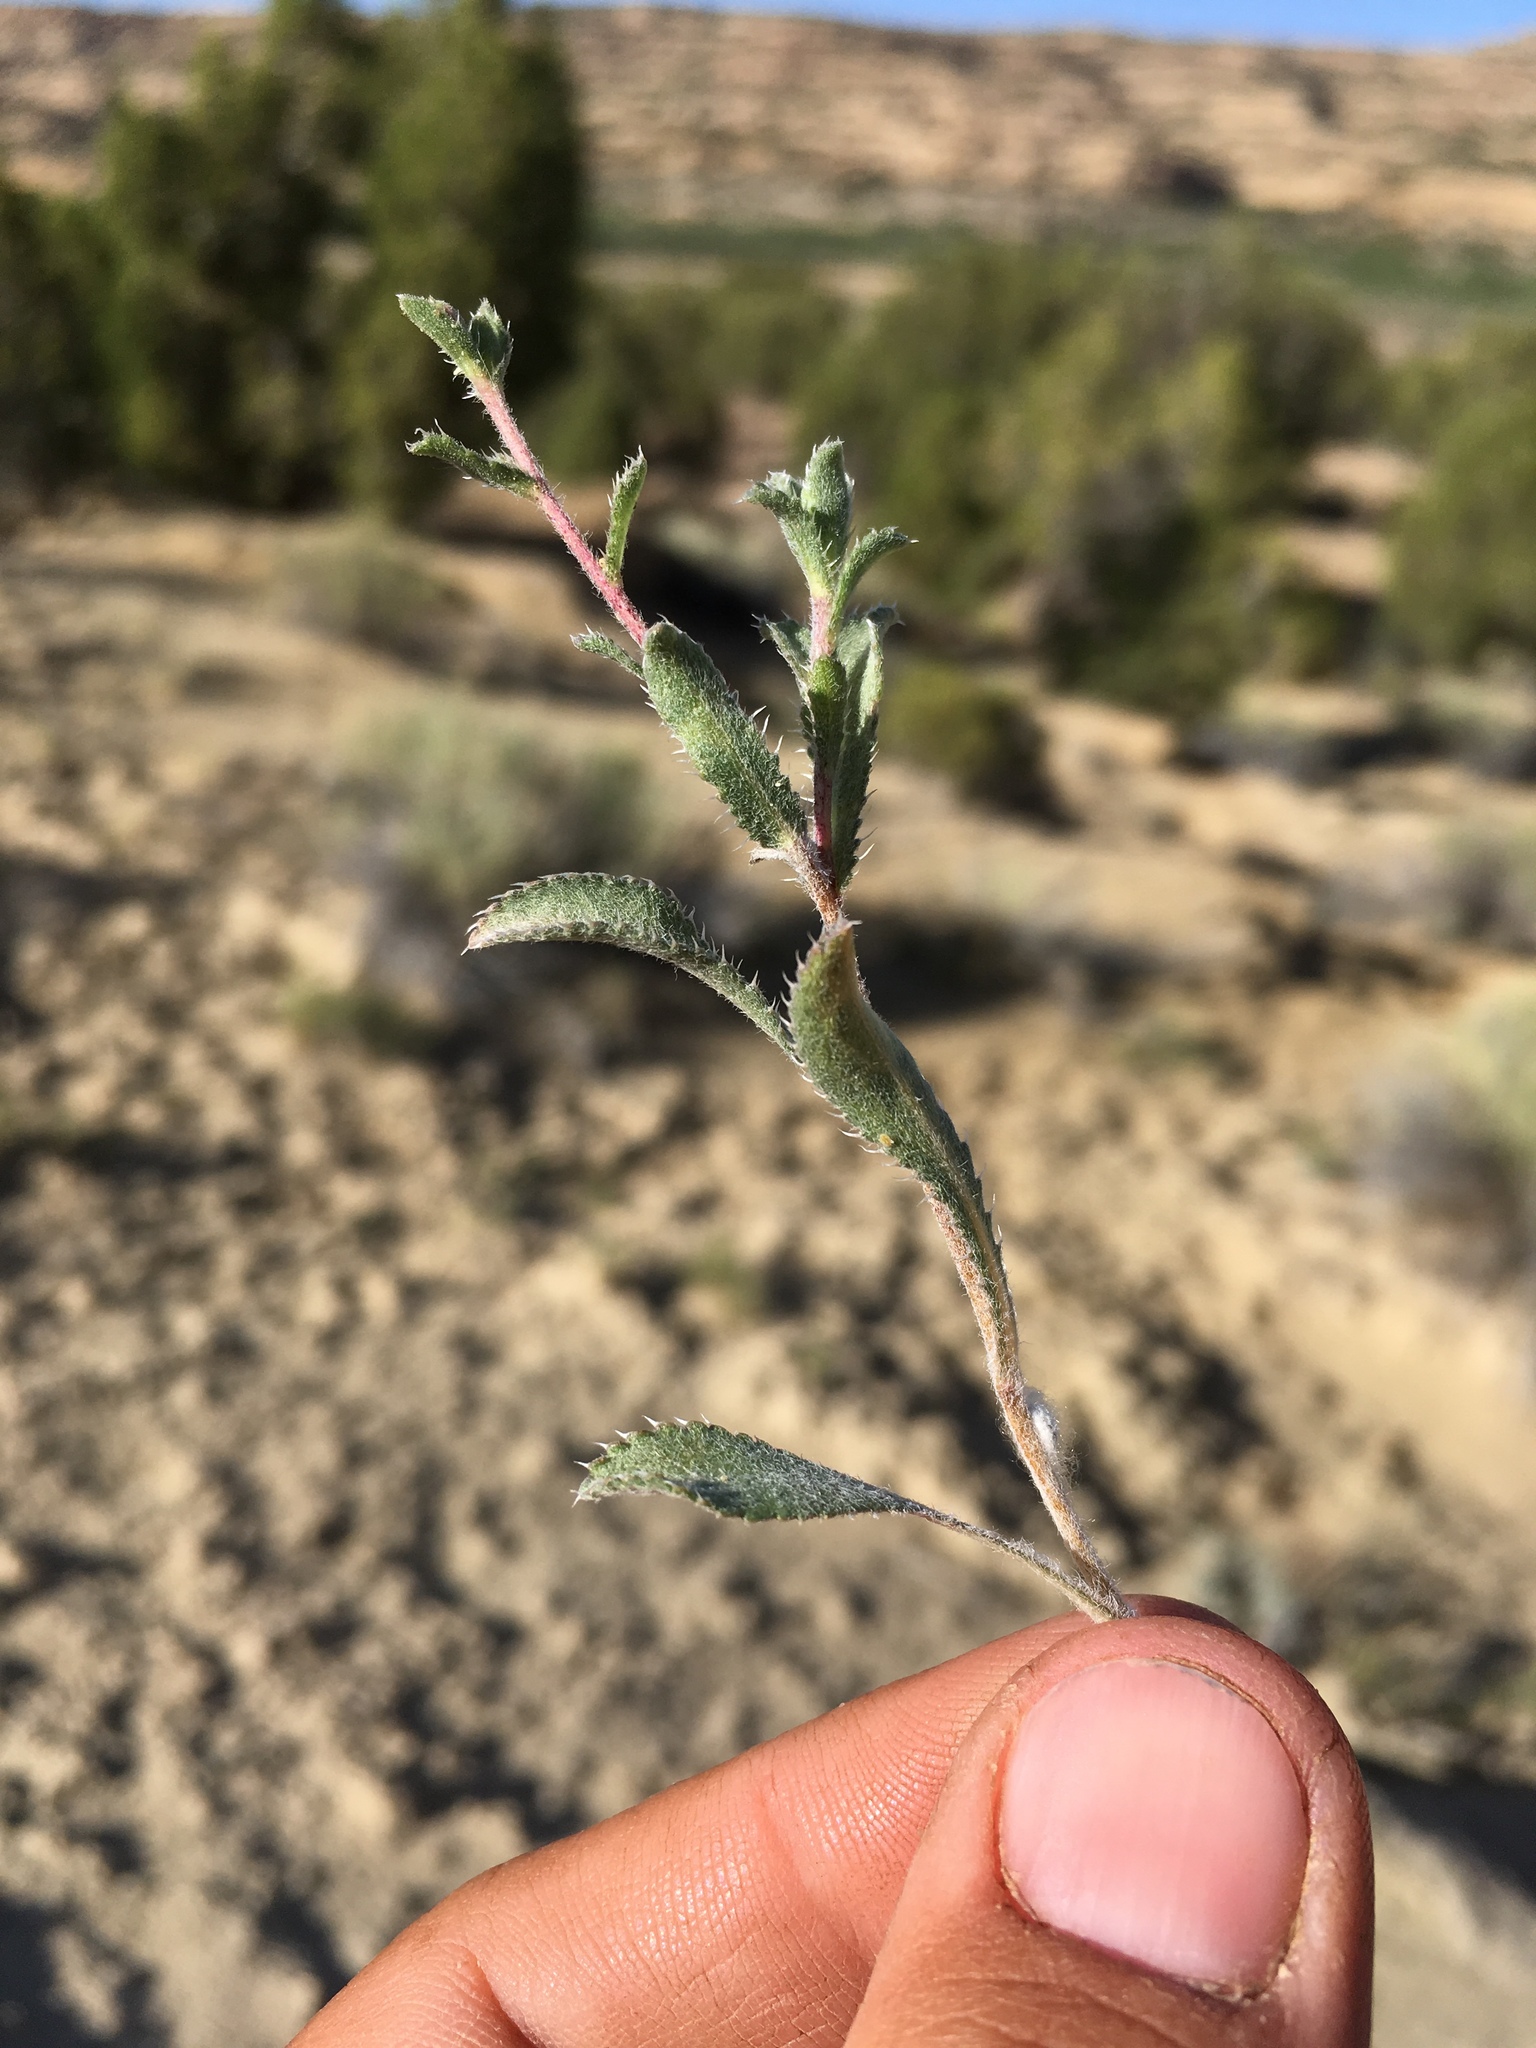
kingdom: Plantae
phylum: Tracheophyta
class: Magnoliopsida
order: Asterales
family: Asteraceae
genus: Xanthisma
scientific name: Xanthisma grindelioides
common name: Goldenweed
